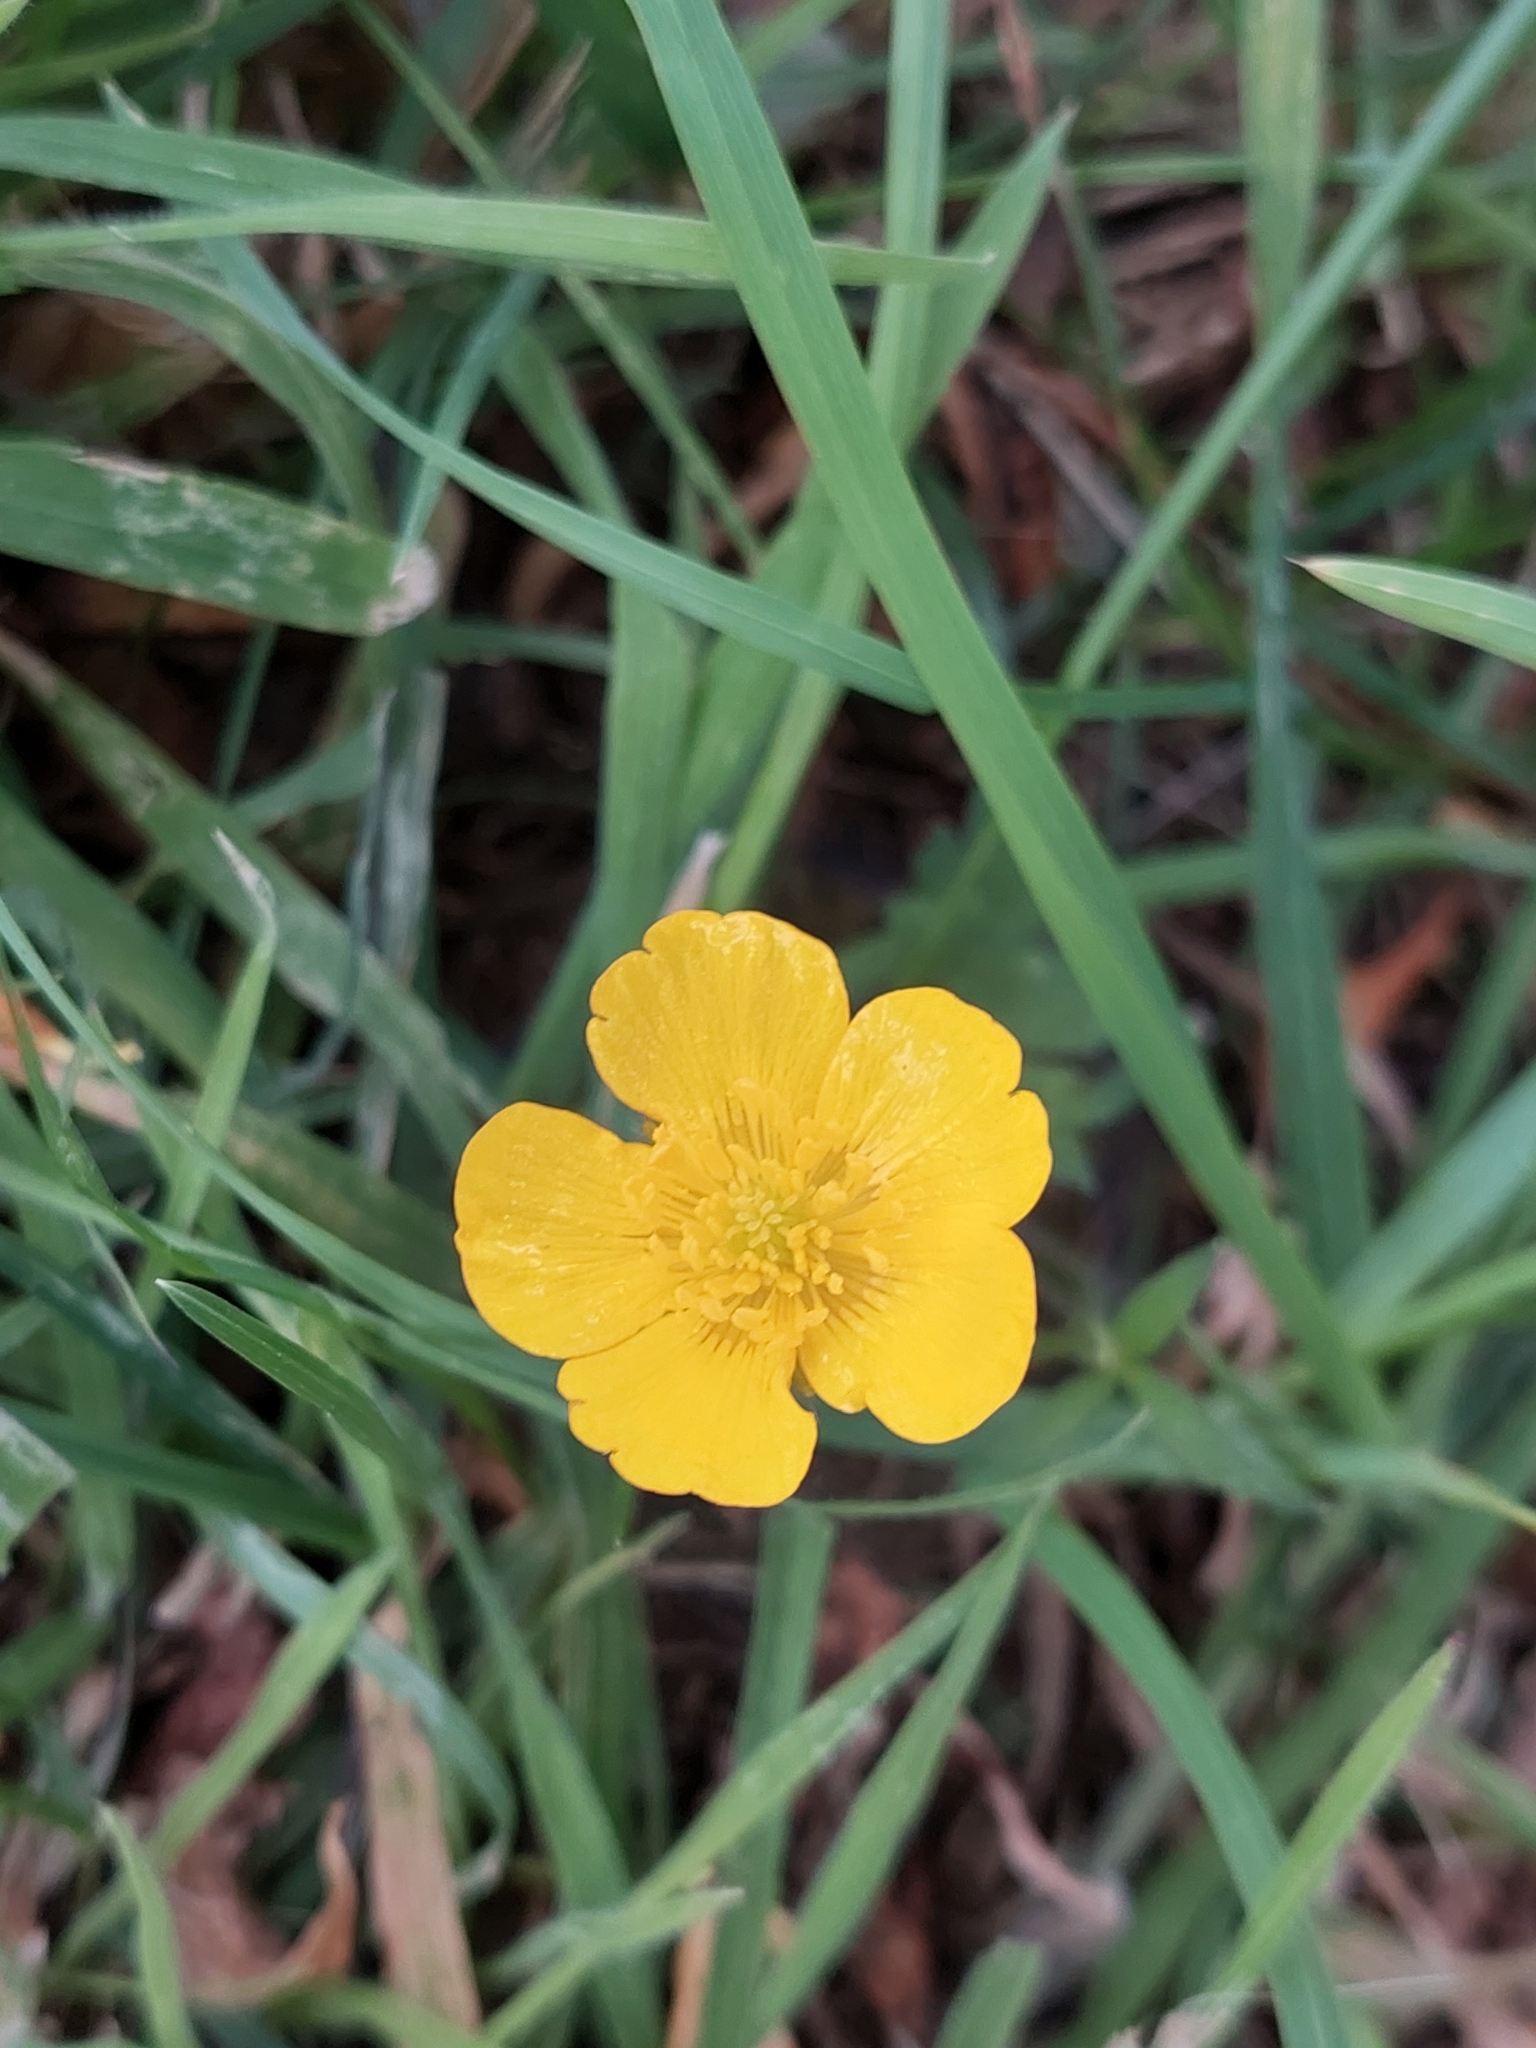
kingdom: Plantae
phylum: Tracheophyta
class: Magnoliopsida
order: Ranunculales
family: Ranunculaceae
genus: Ranunculus
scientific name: Ranunculus repens
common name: Creeping buttercup
